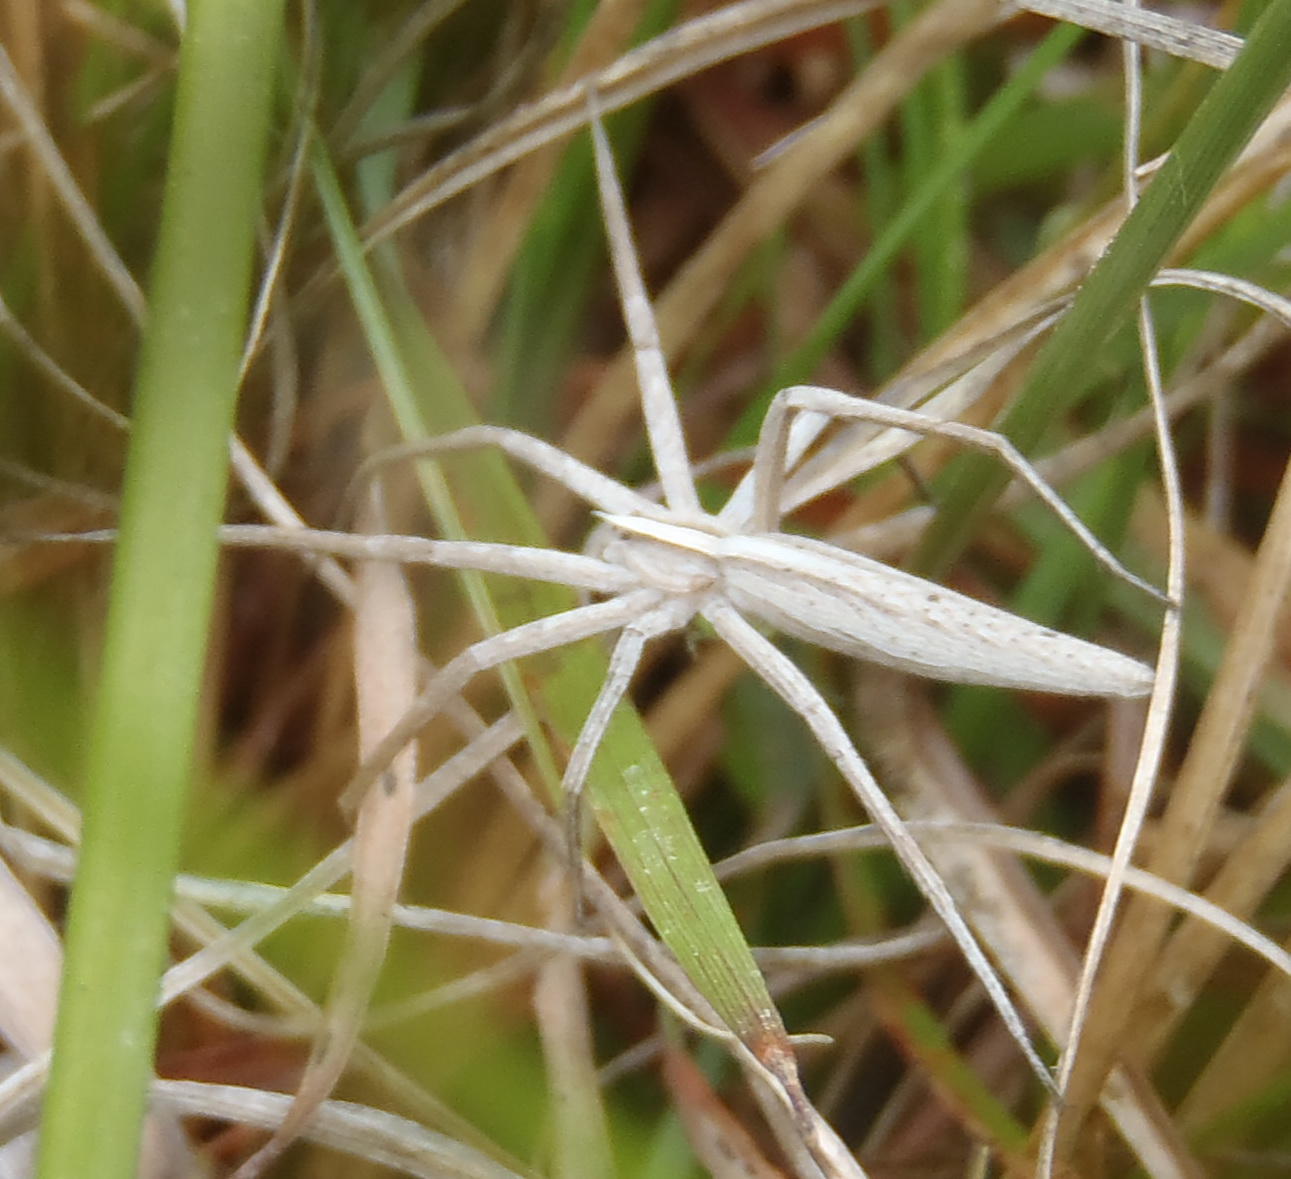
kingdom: Animalia
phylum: Arthropoda
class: Arachnida
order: Araneae
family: Pisauridae
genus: Chiasmopes
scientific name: Chiasmopes lineatus
